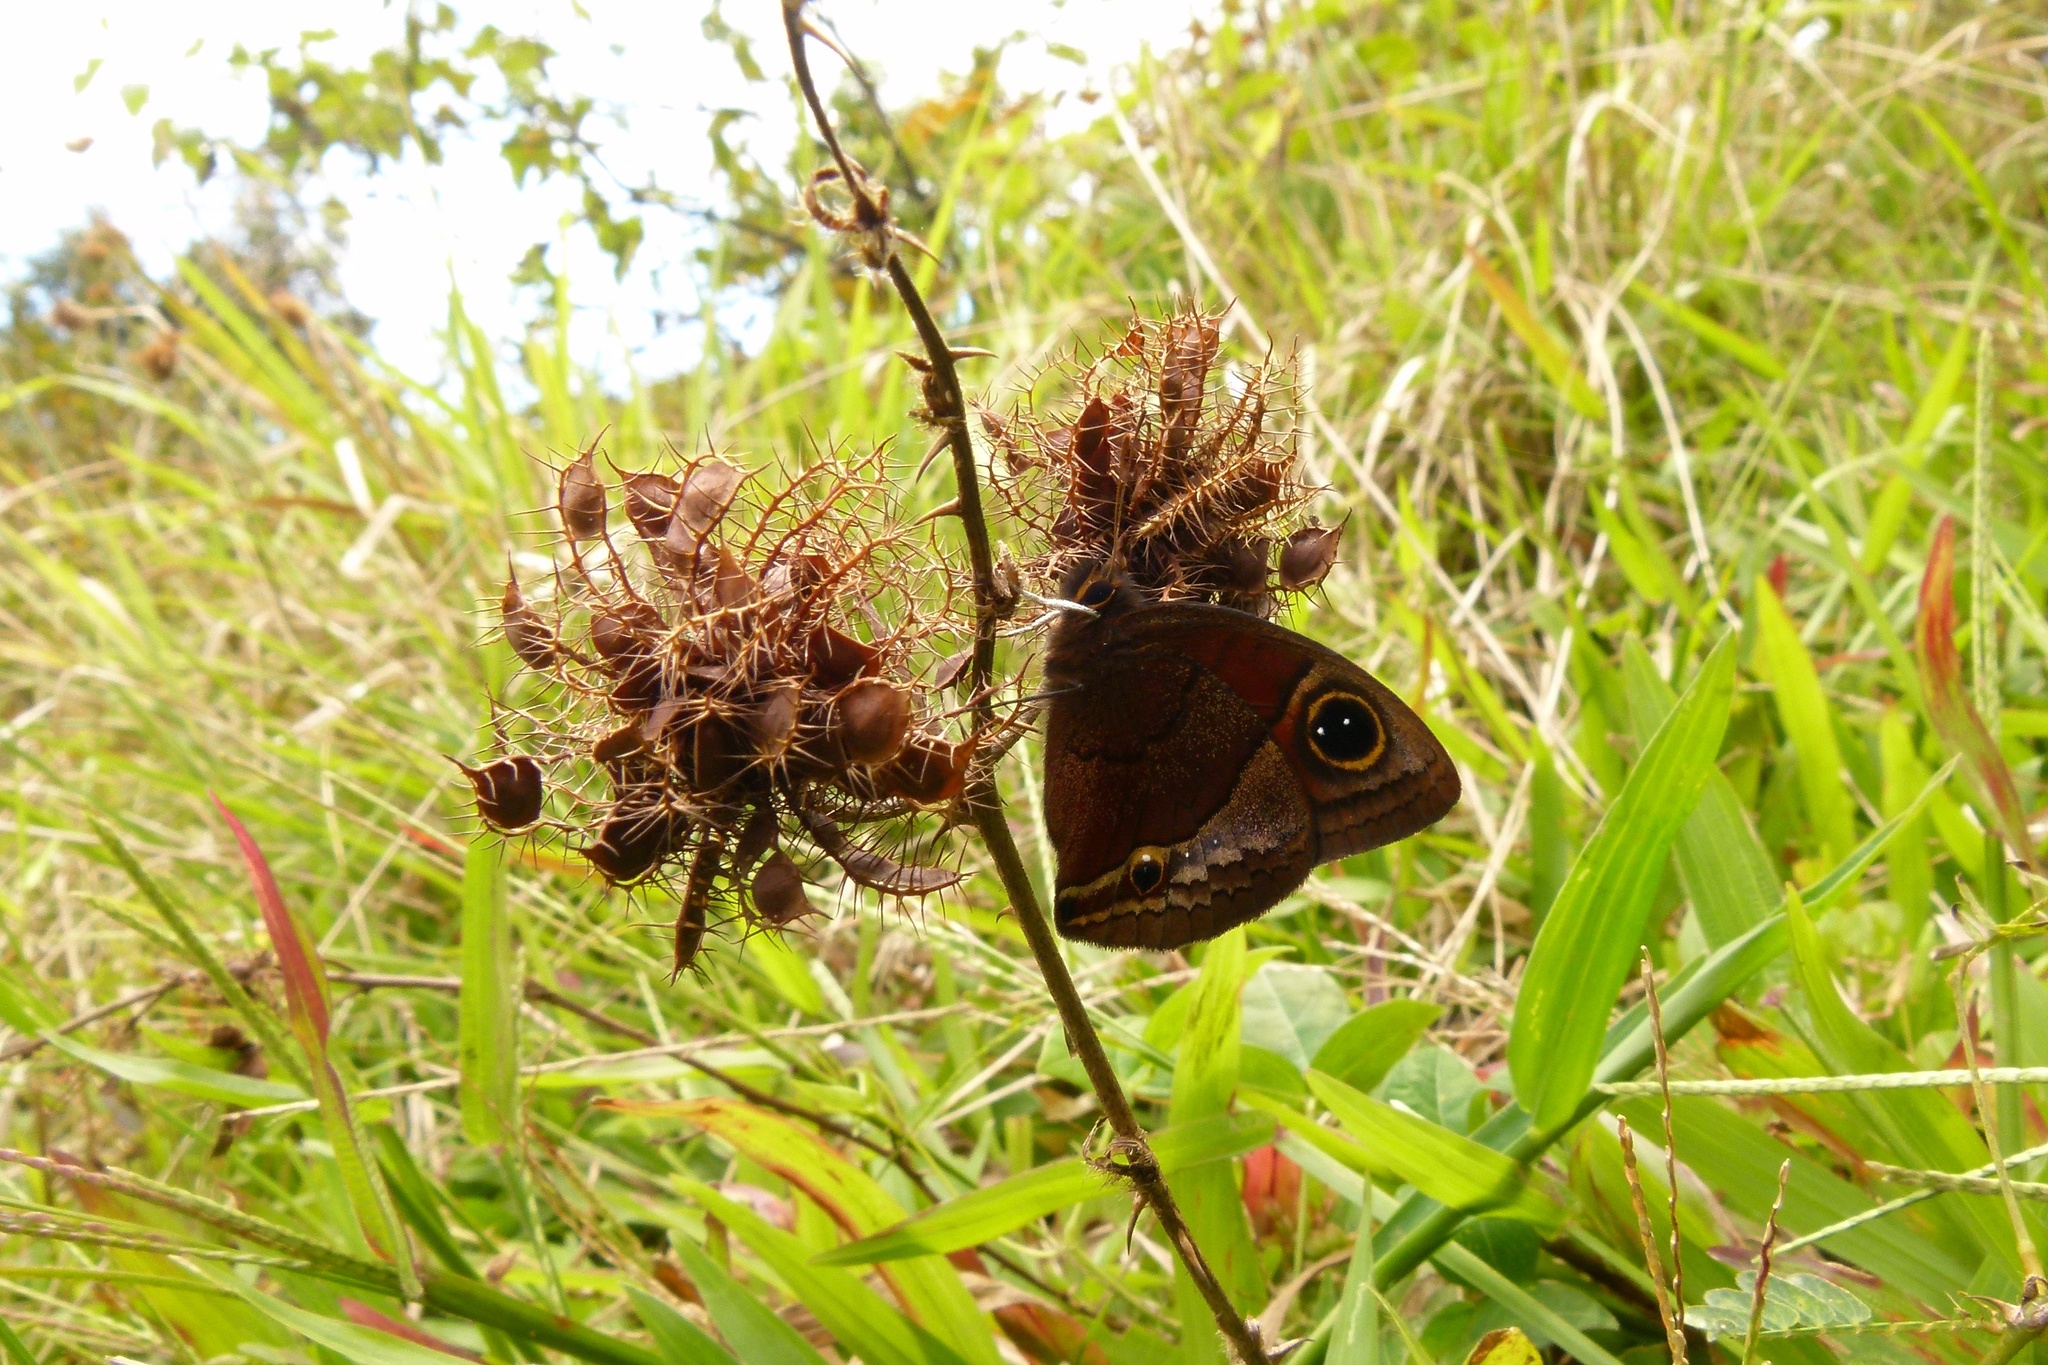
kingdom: Animalia
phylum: Arthropoda
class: Insecta
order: Lepidoptera
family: Nymphalidae
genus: Calisto
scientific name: Calisto nubila
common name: Puerto rican calisto
